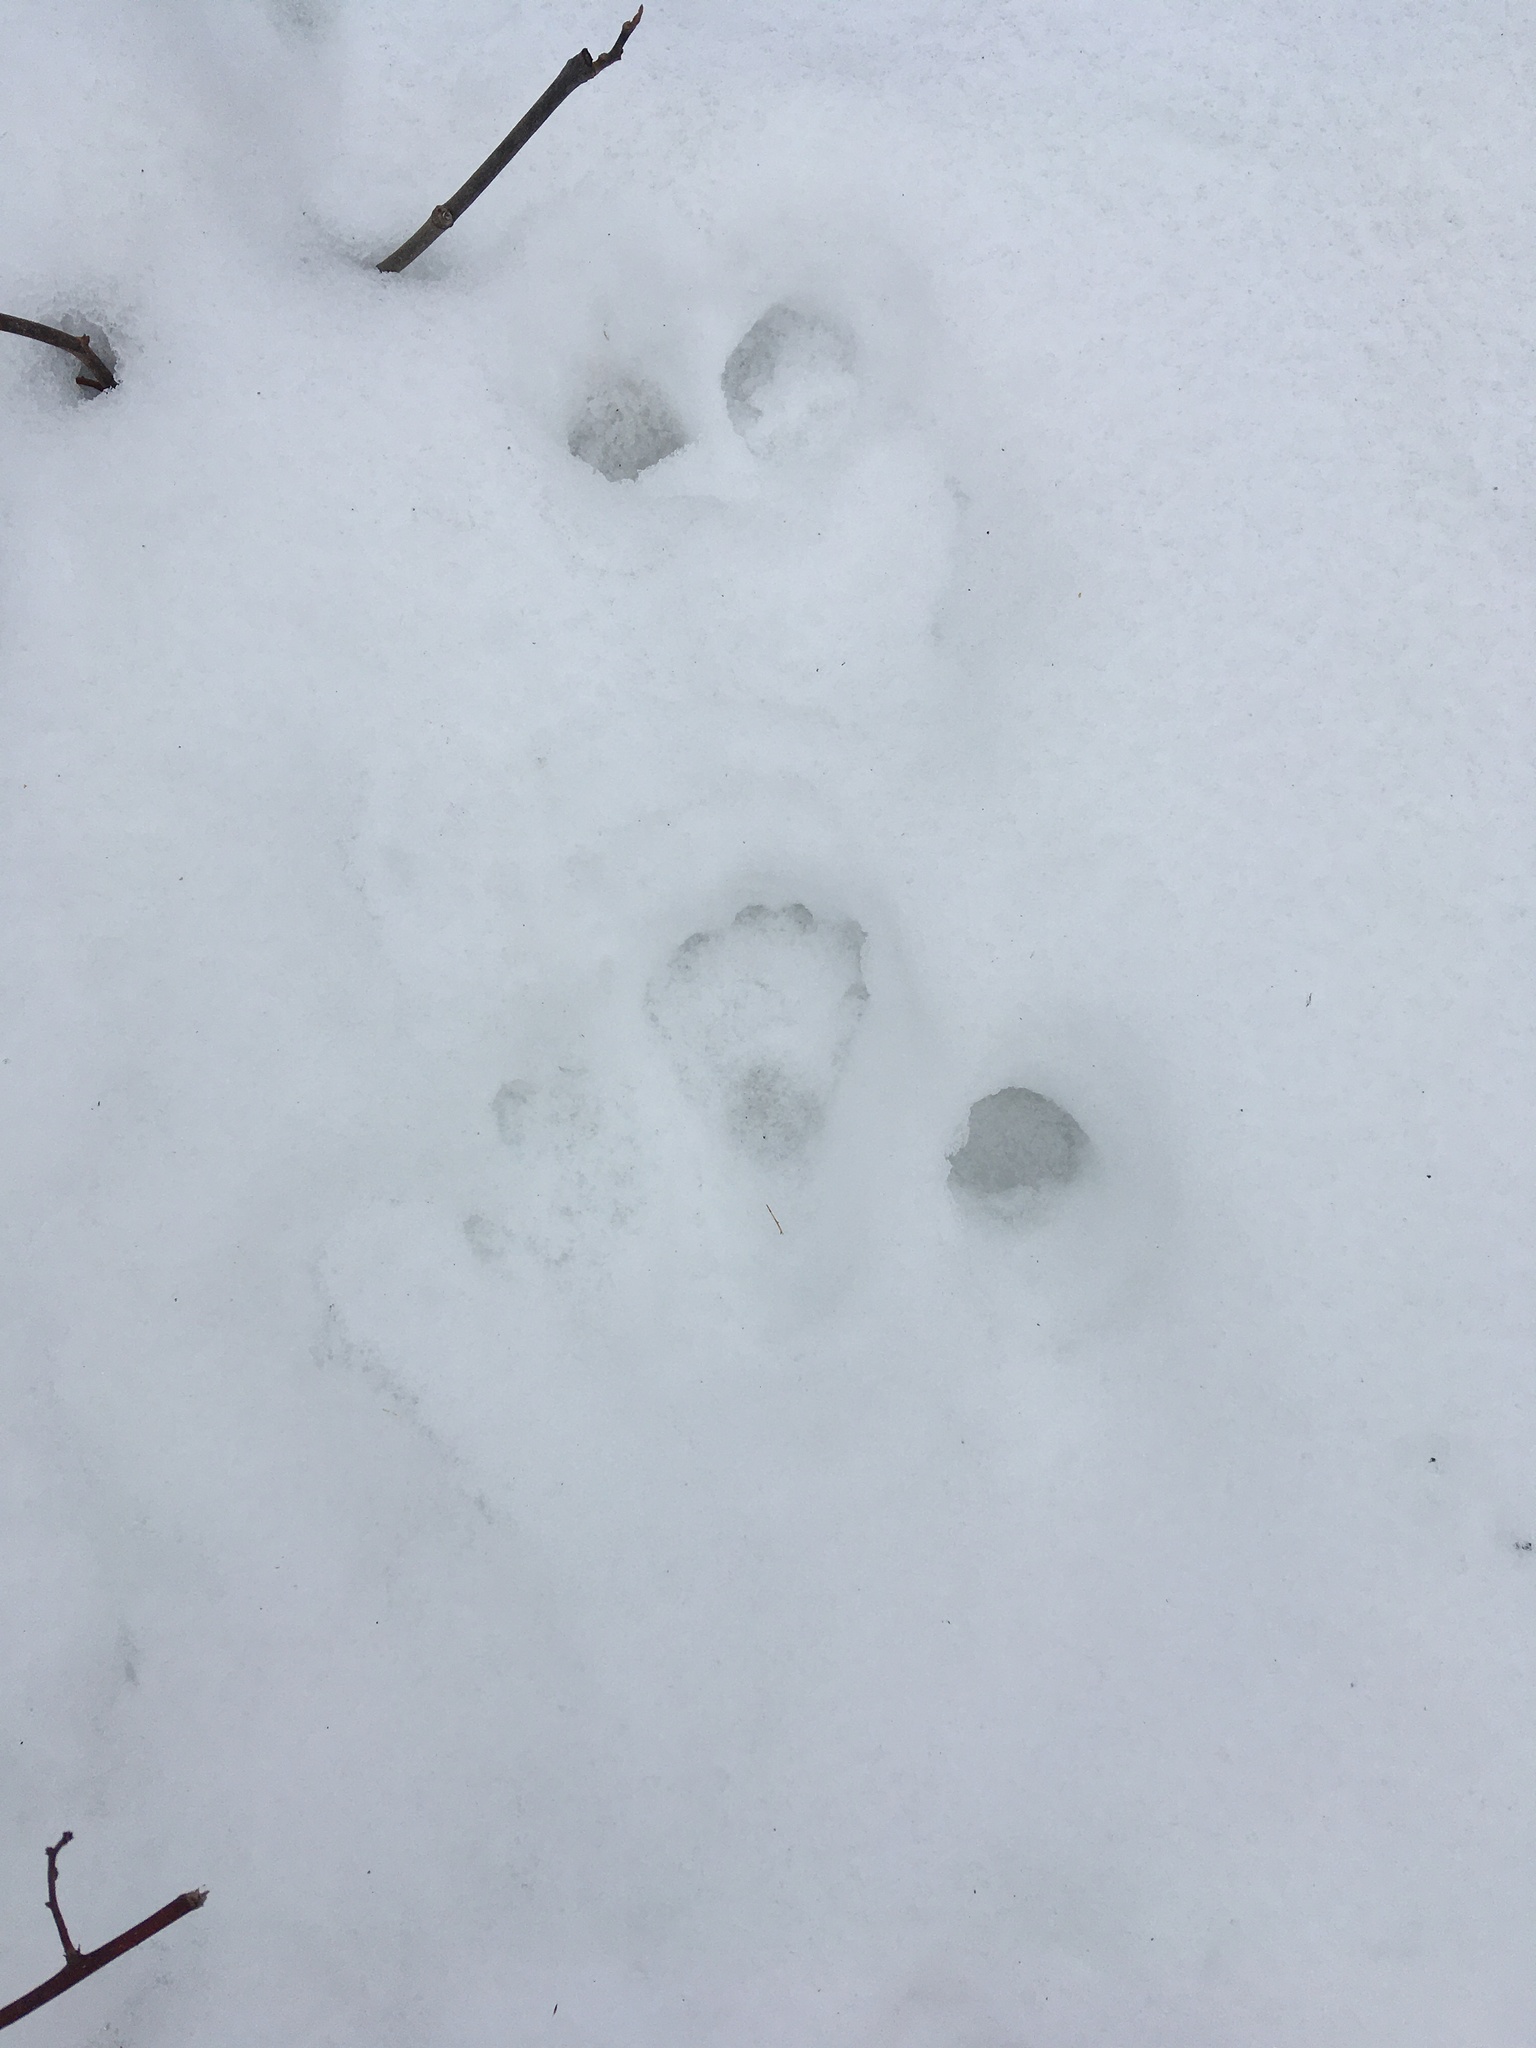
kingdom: Animalia
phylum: Chordata
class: Mammalia
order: Carnivora
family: Procyonidae
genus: Procyon
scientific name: Procyon lotor
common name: Raccoon
